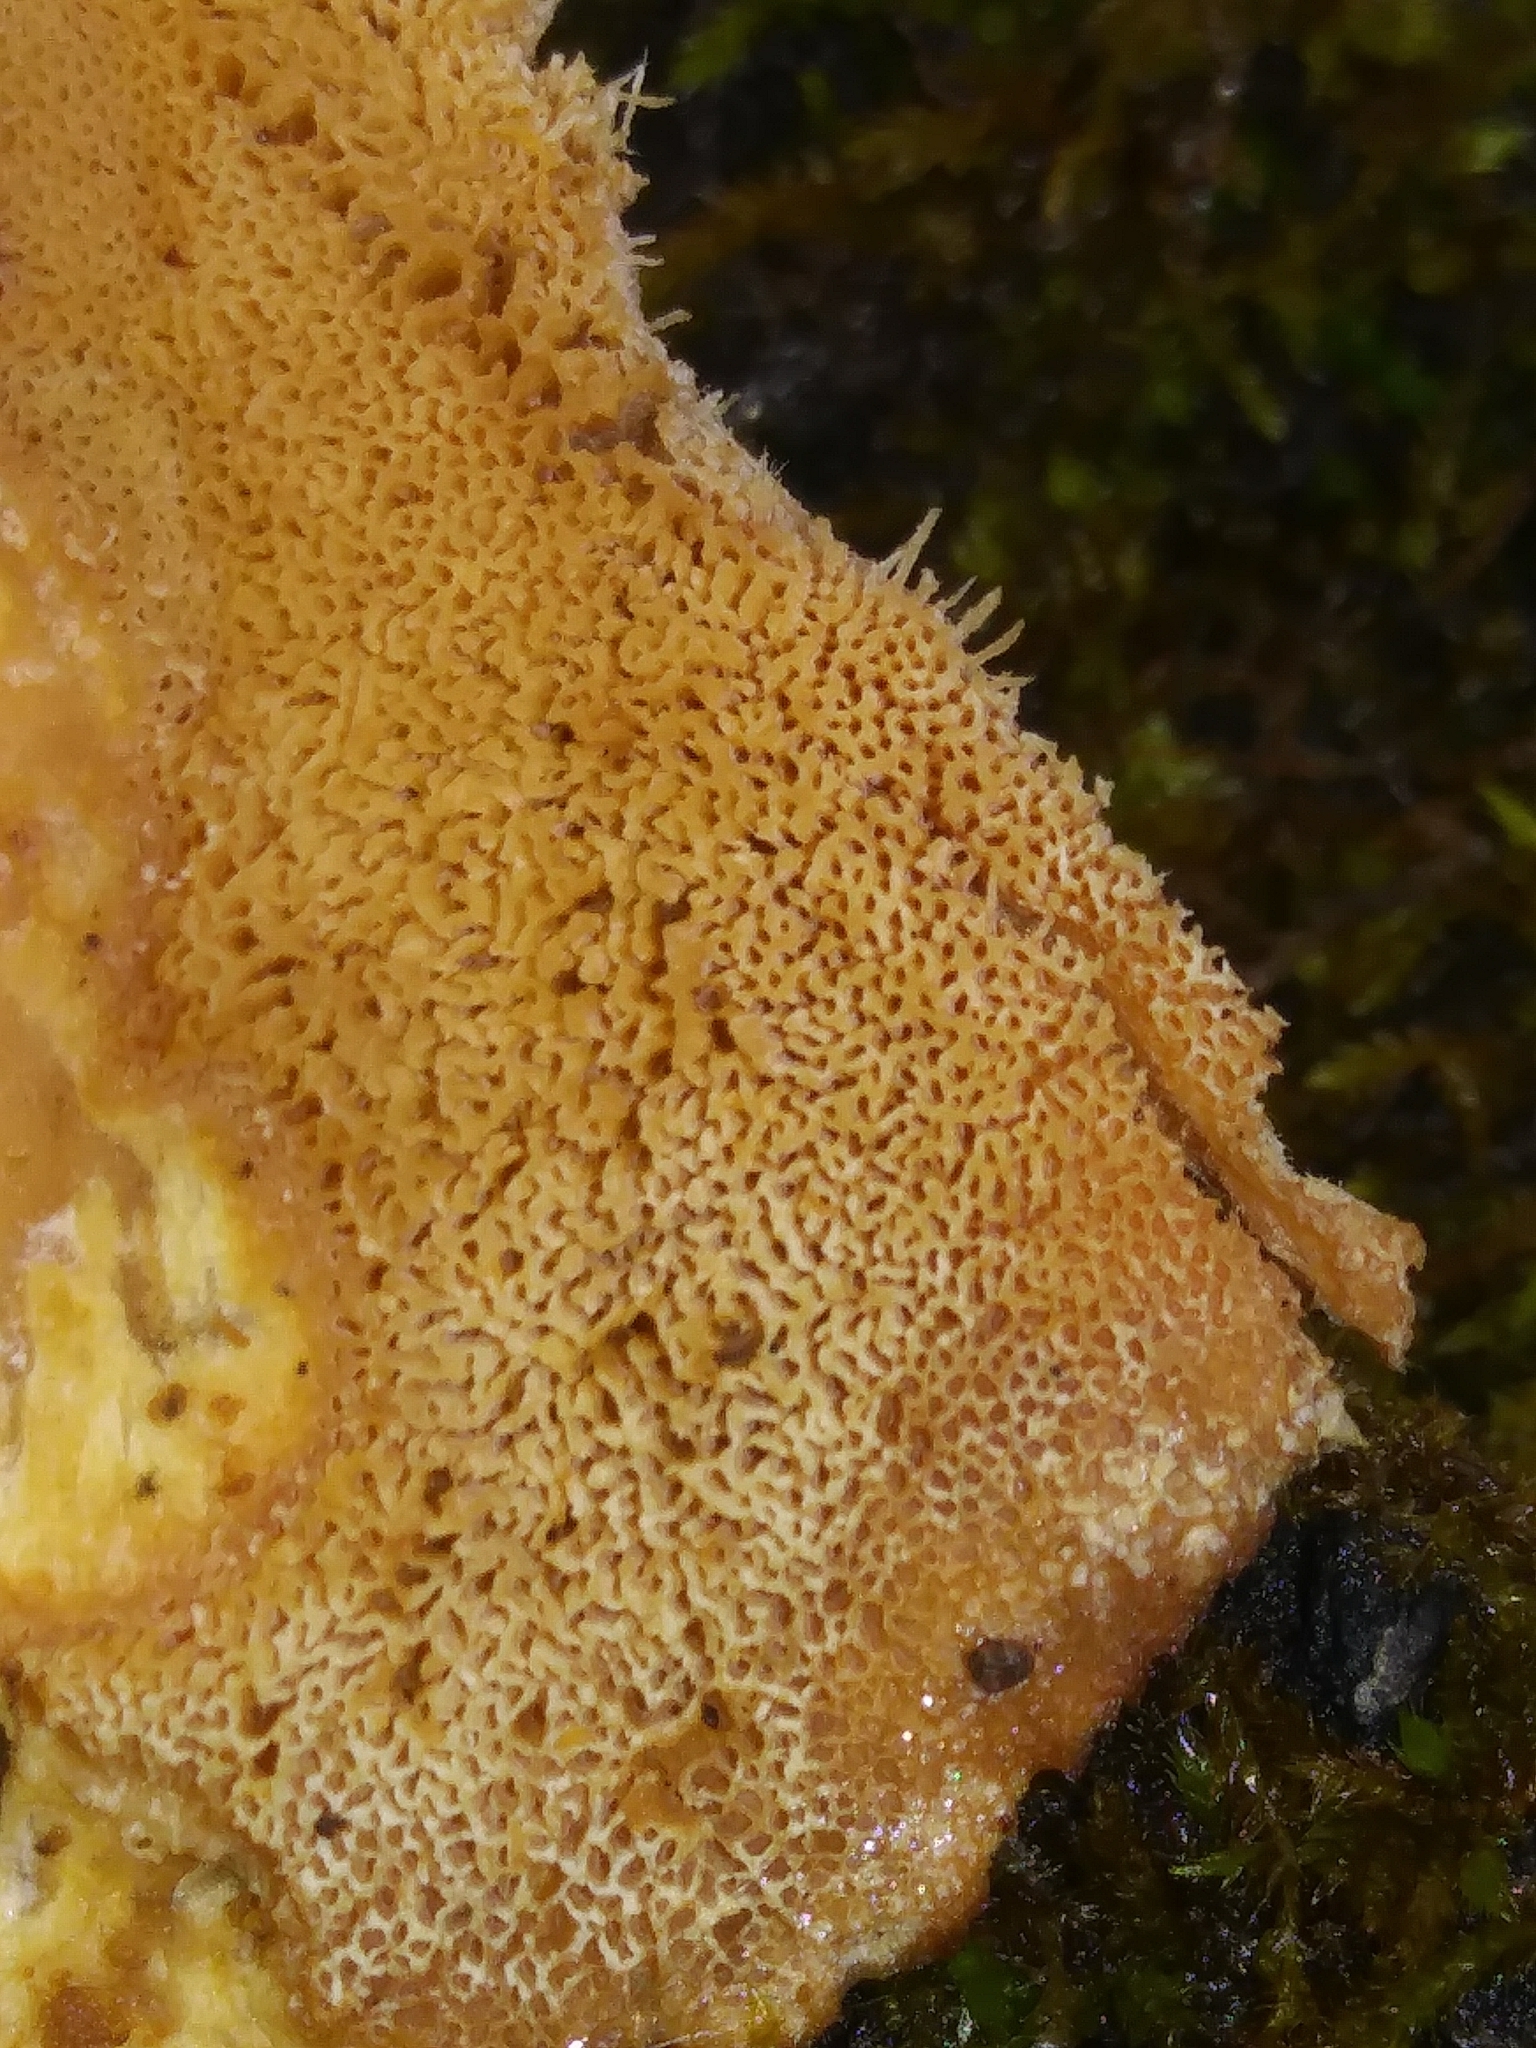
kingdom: Fungi
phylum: Basidiomycota
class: Agaricomycetes
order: Polyporales
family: Ischnodermataceae
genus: Ischnoderma
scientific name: Ischnoderma resinosum
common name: Resinous polypore
